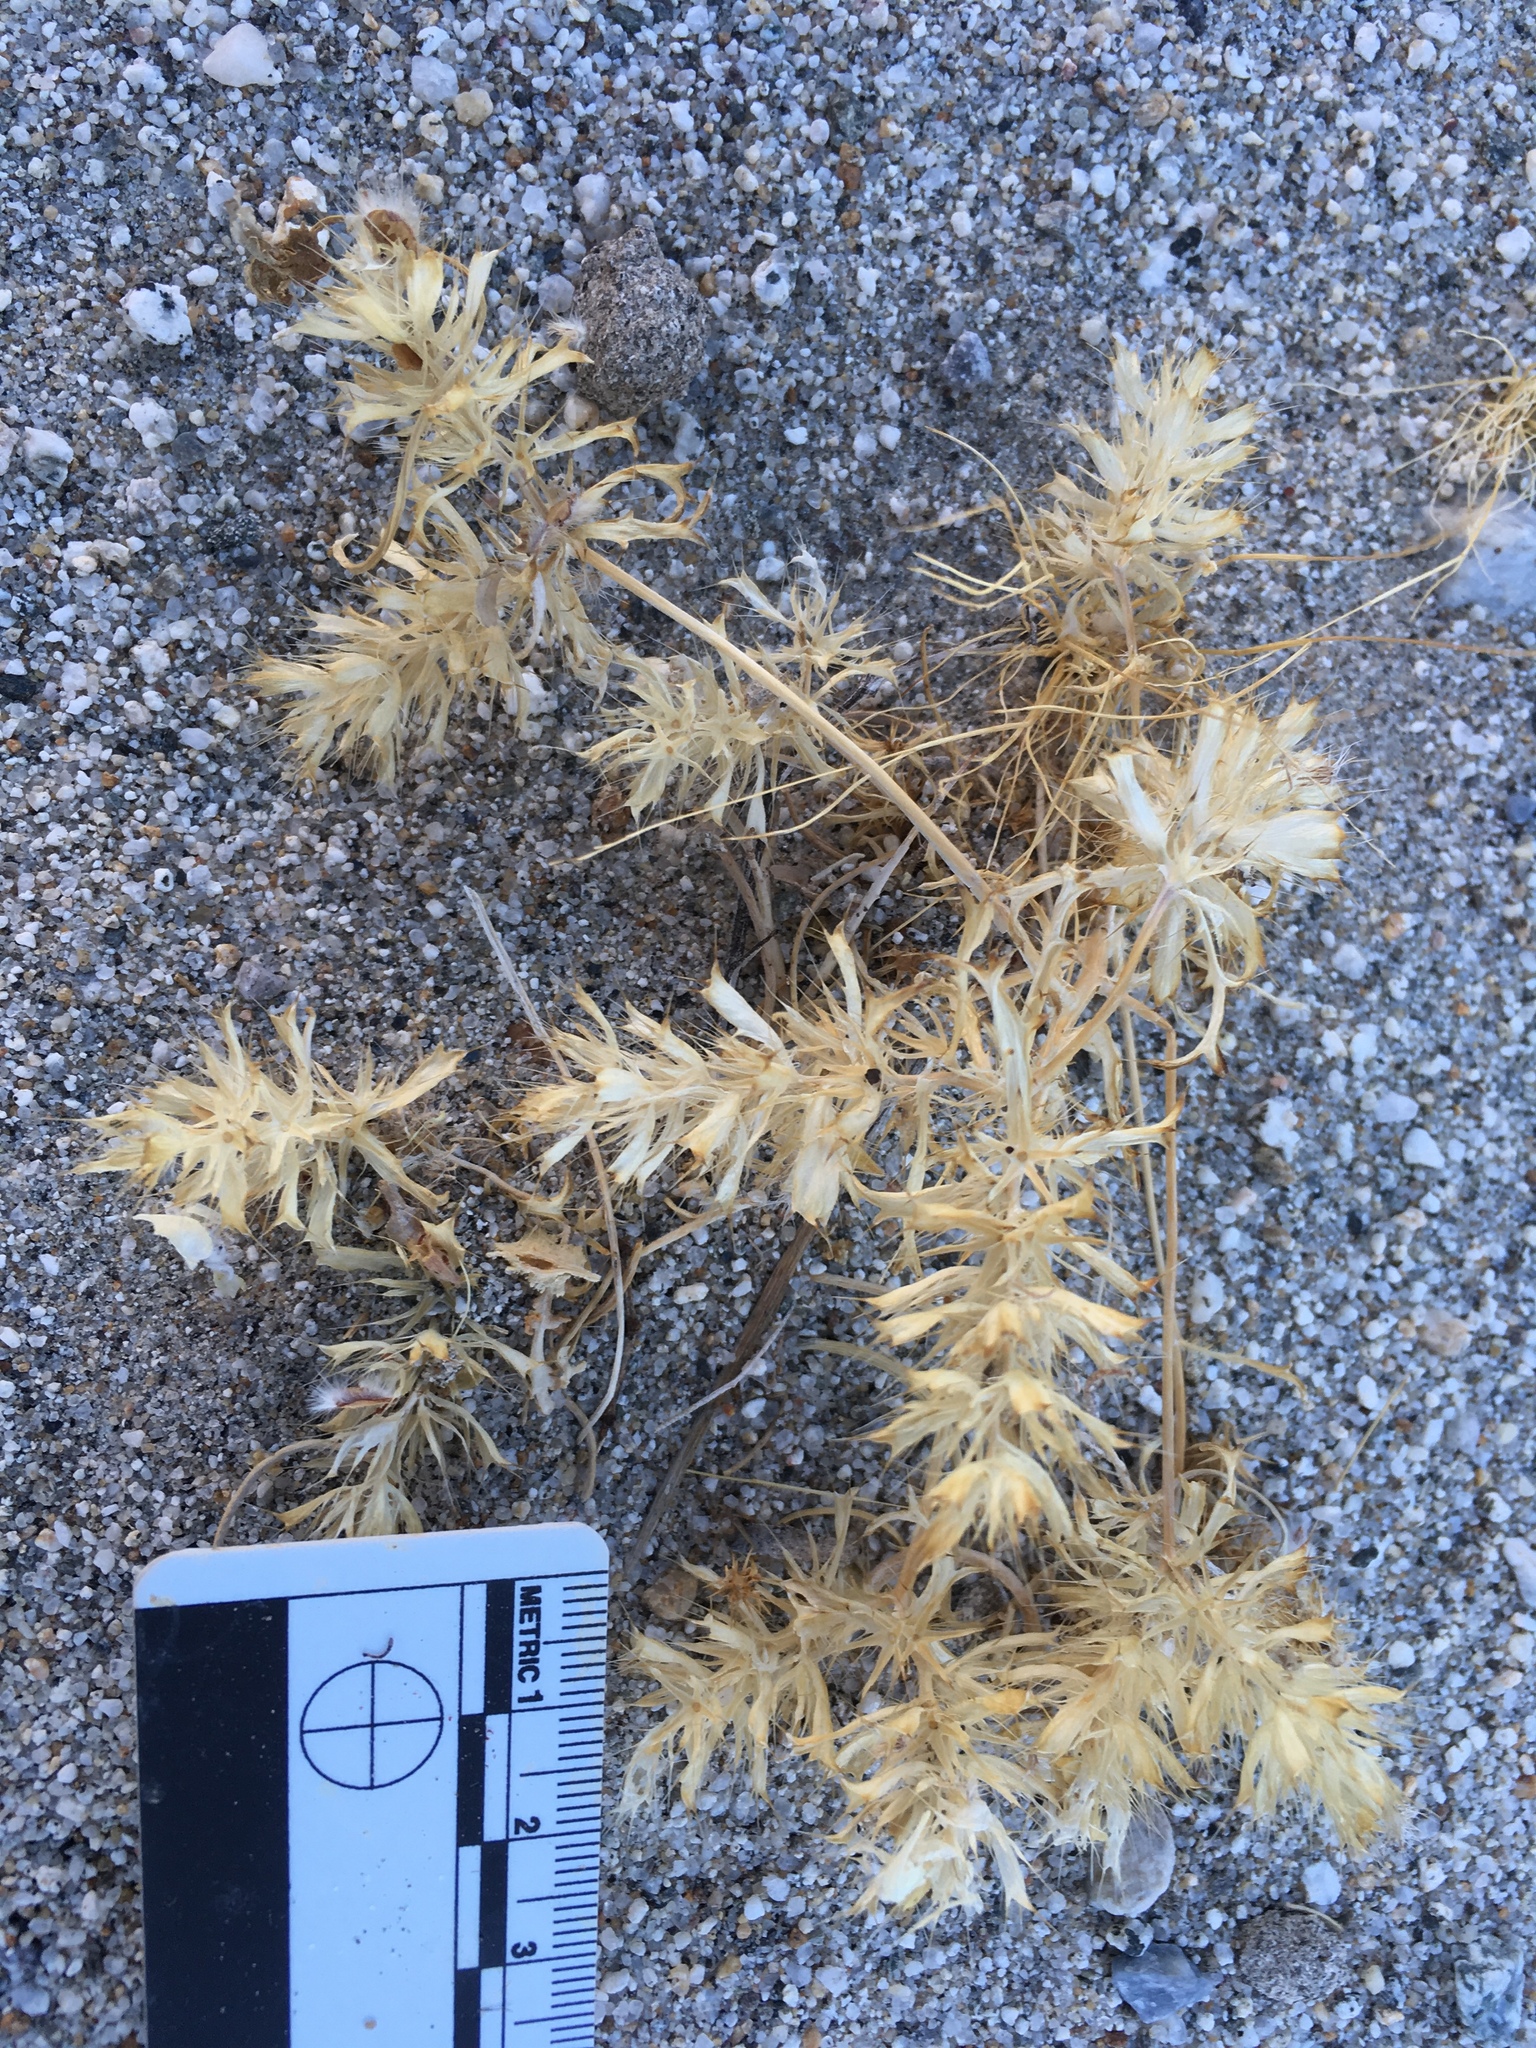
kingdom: Plantae
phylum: Tracheophyta
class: Magnoliopsida
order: Ericales
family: Polemoniaceae
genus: Langloisia
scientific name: Langloisia setosissima
